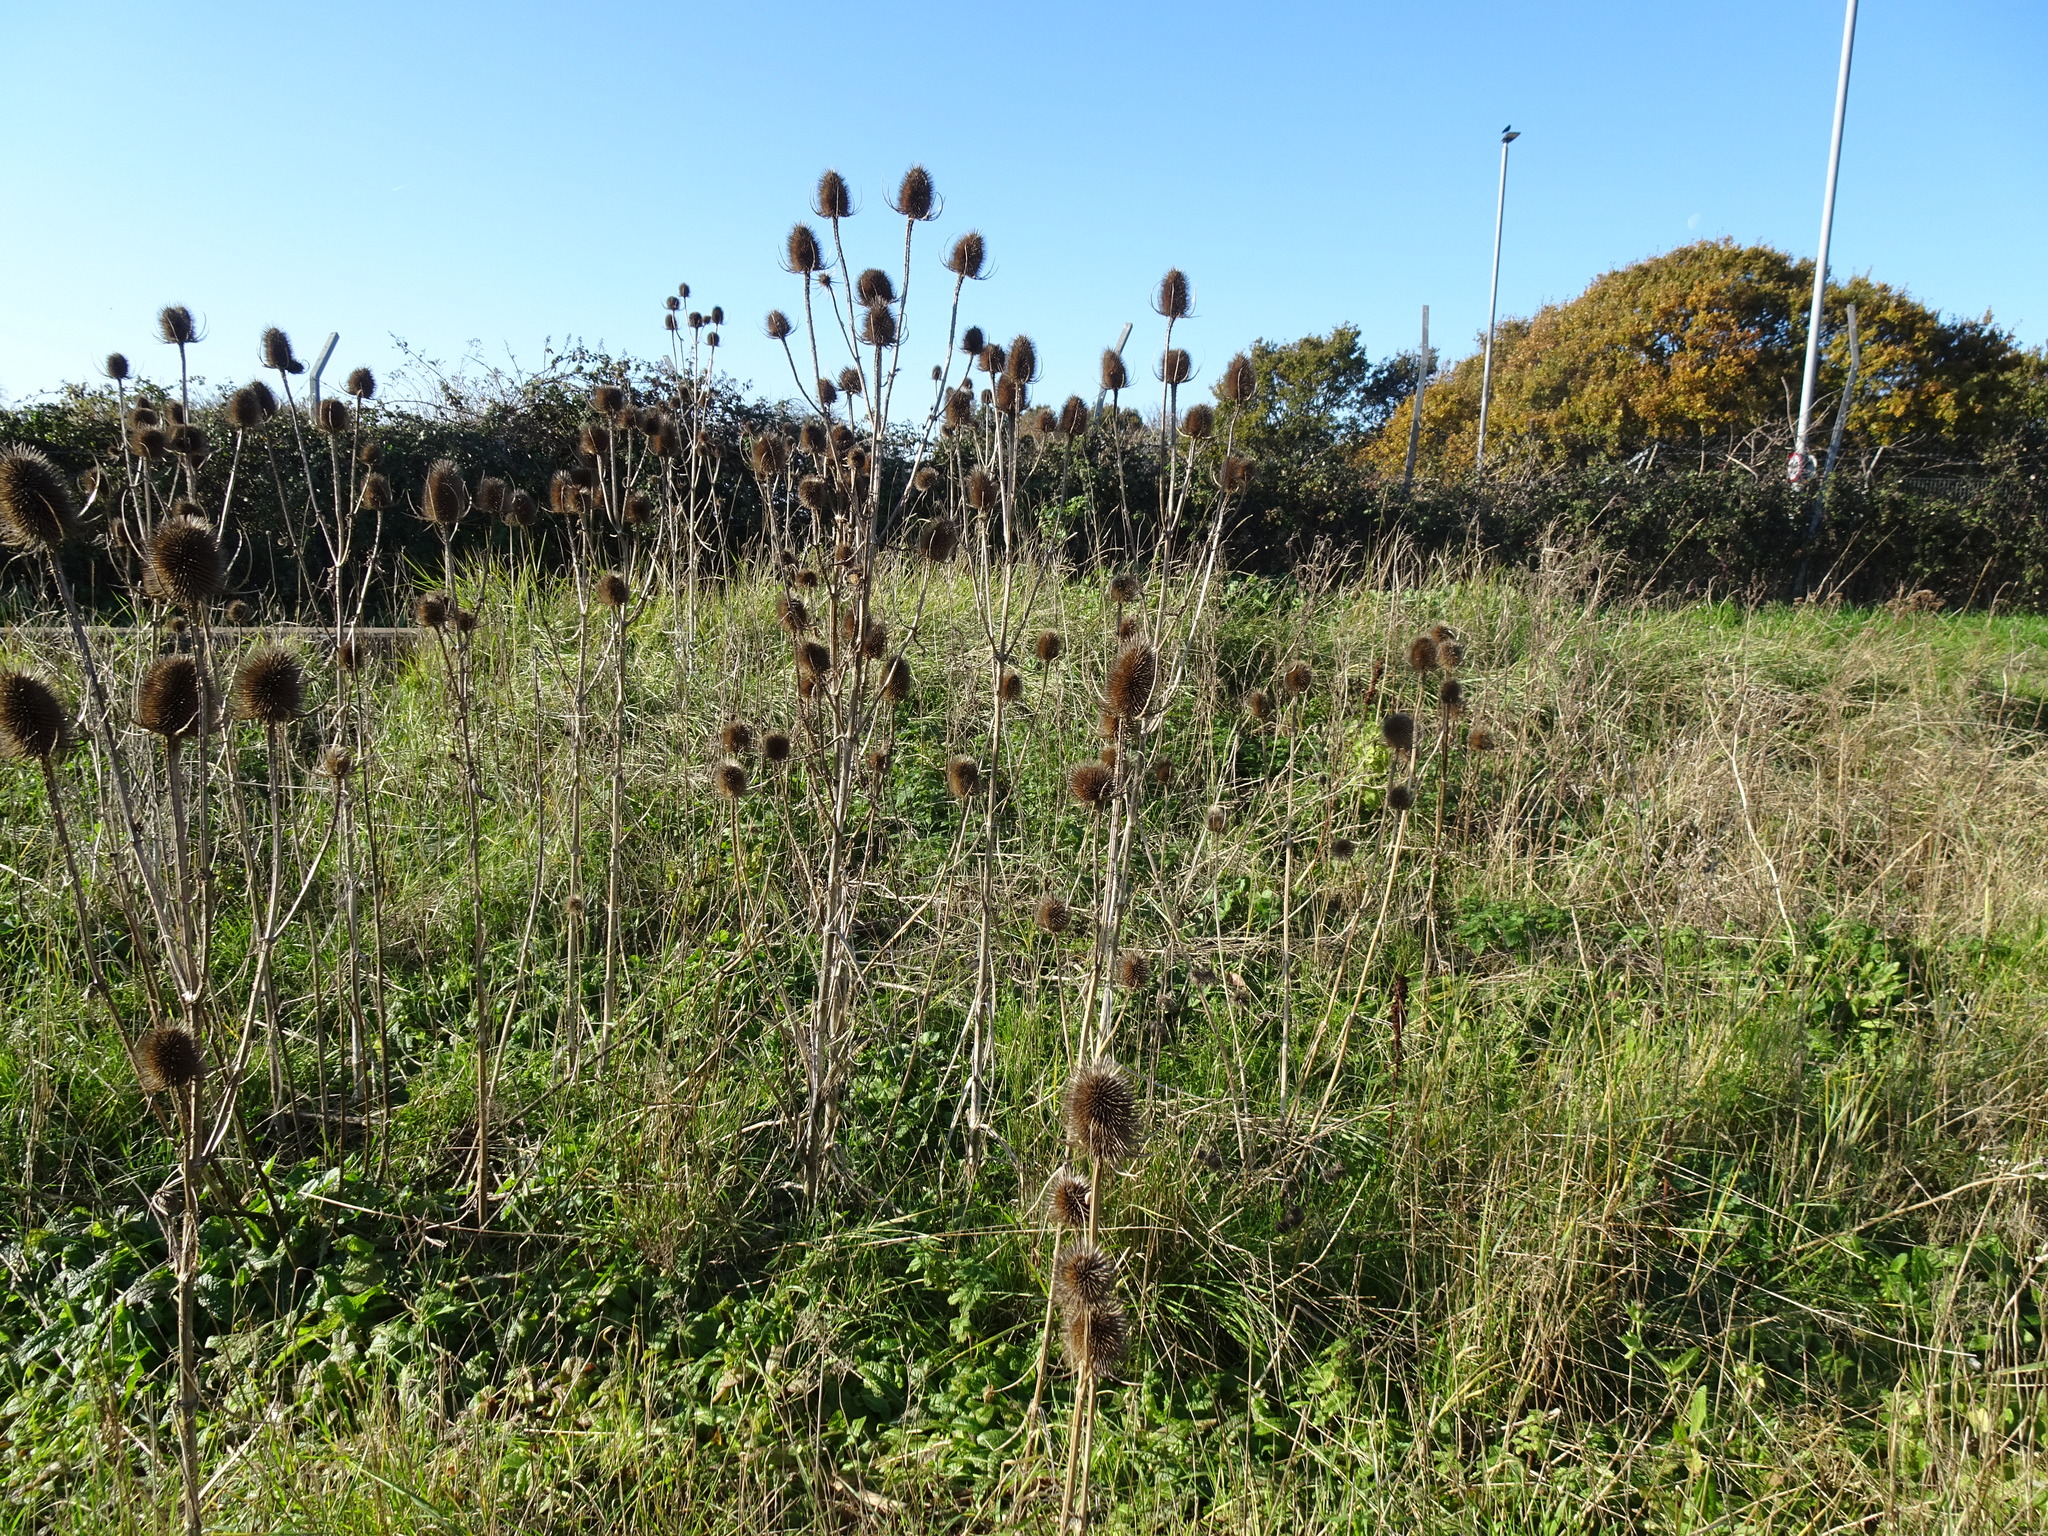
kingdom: Plantae
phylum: Tracheophyta
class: Magnoliopsida
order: Dipsacales
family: Caprifoliaceae
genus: Dipsacus
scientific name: Dipsacus fullonum
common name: Teasel
